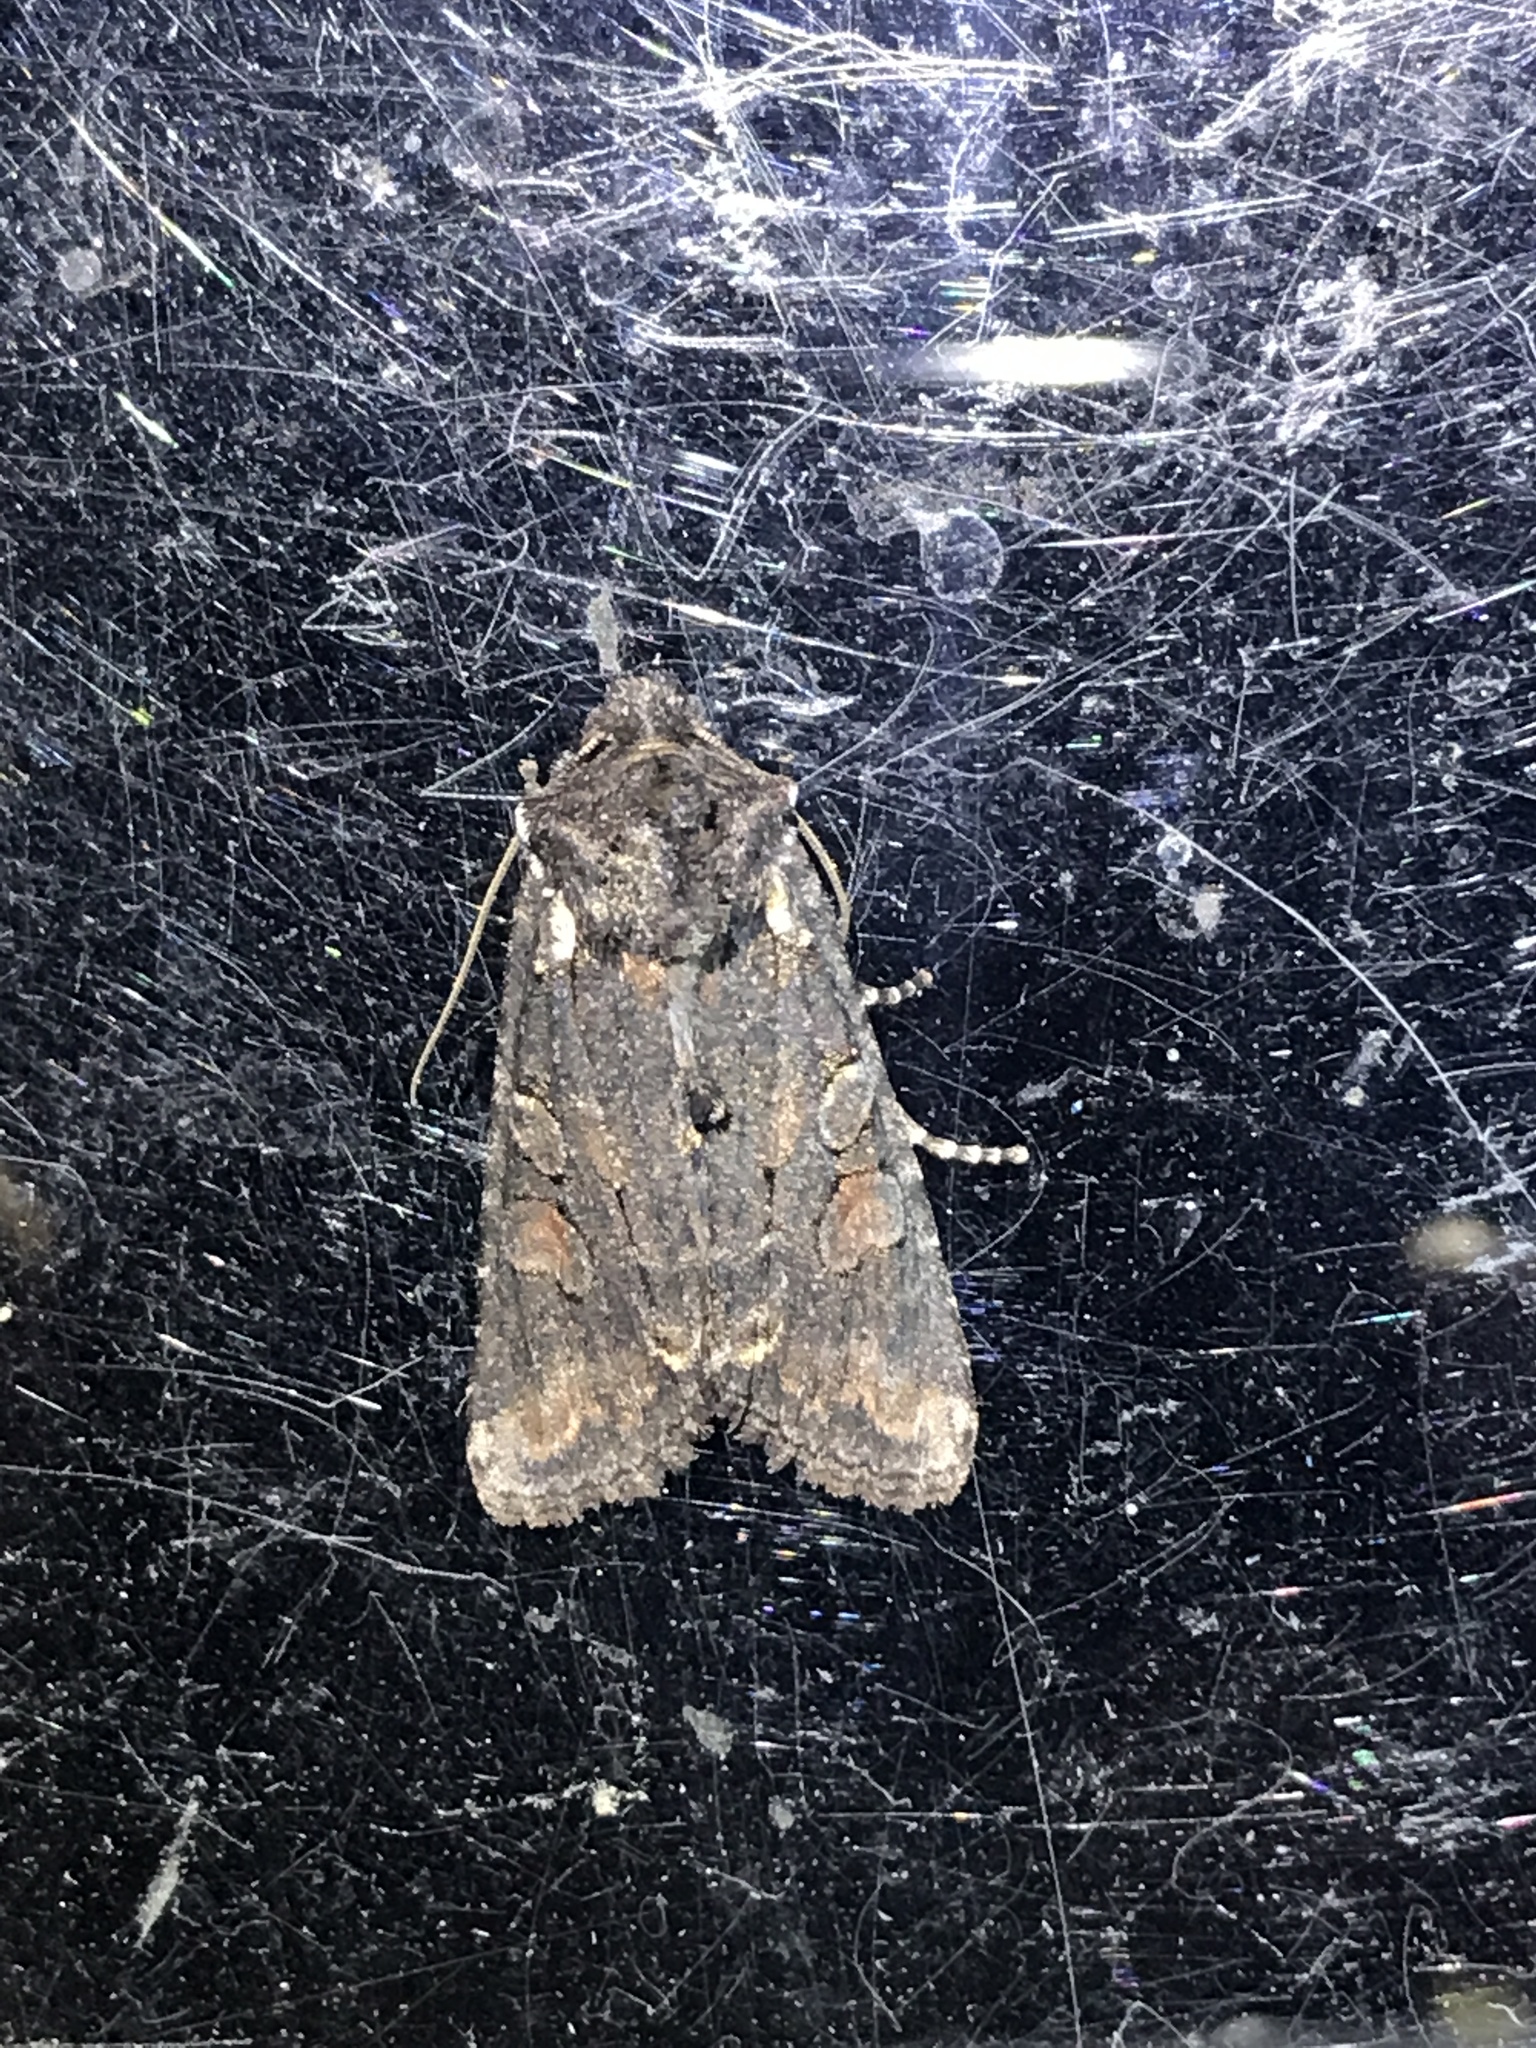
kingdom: Animalia
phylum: Arthropoda
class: Insecta
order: Lepidoptera
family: Noctuidae
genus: Lithophane
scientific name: Lithophane pexata
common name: Plush-naped pinion moth
